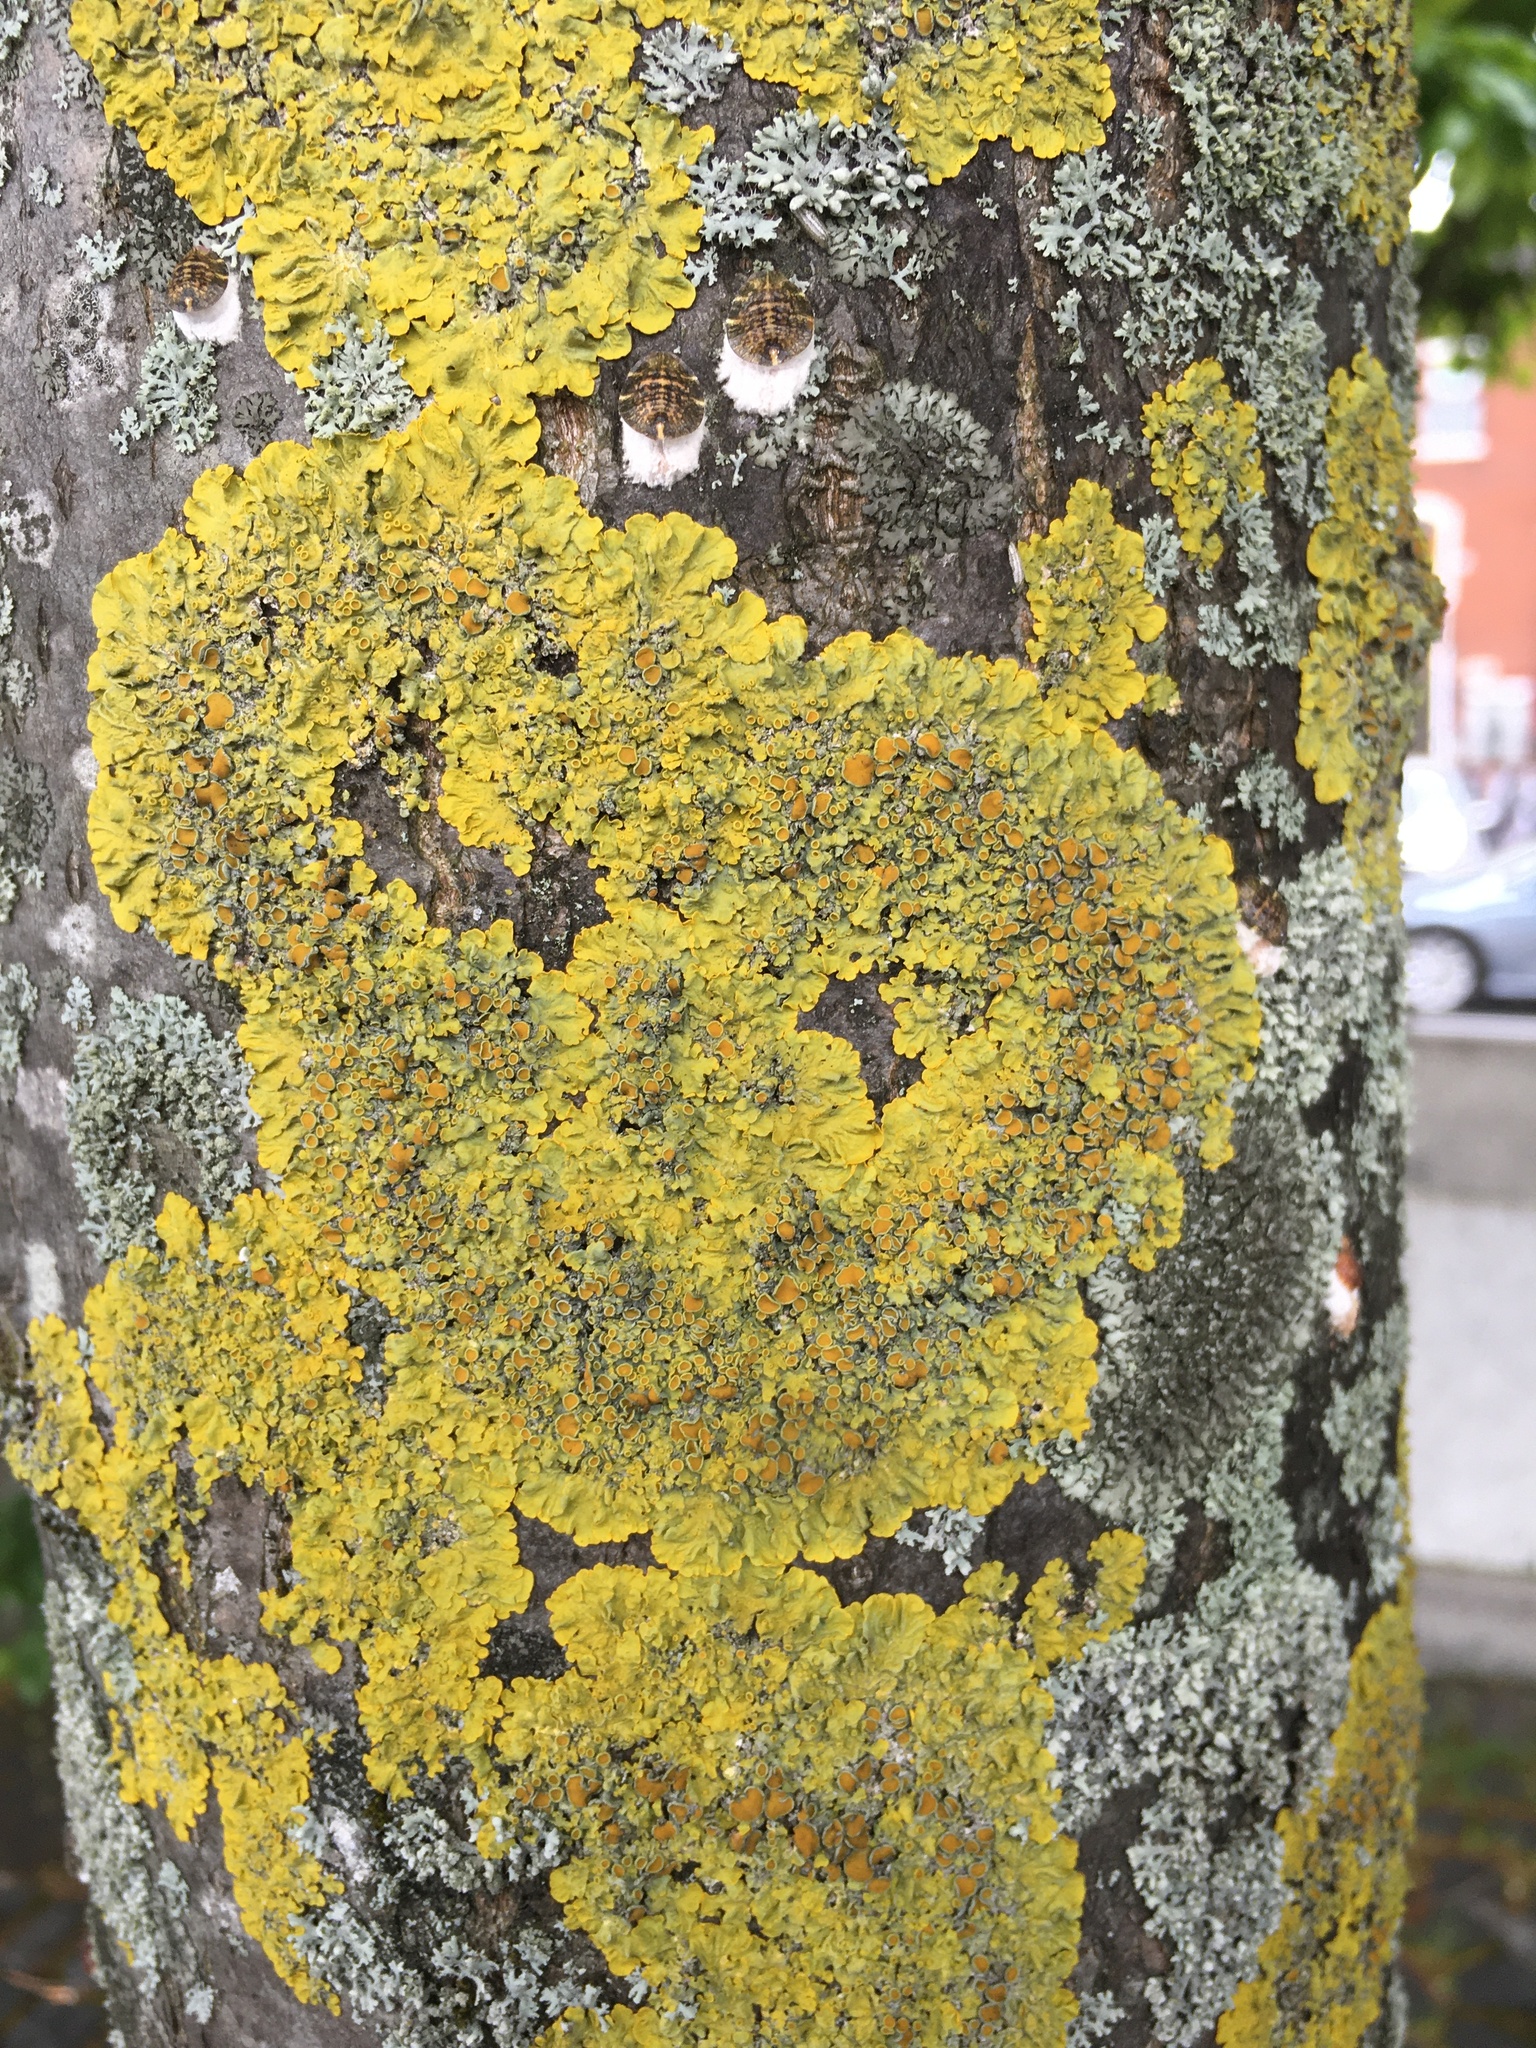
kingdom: Fungi
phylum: Ascomycota
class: Lecanoromycetes
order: Teloschistales
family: Teloschistaceae
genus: Xanthoria
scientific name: Xanthoria parietina
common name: Common orange lichen
